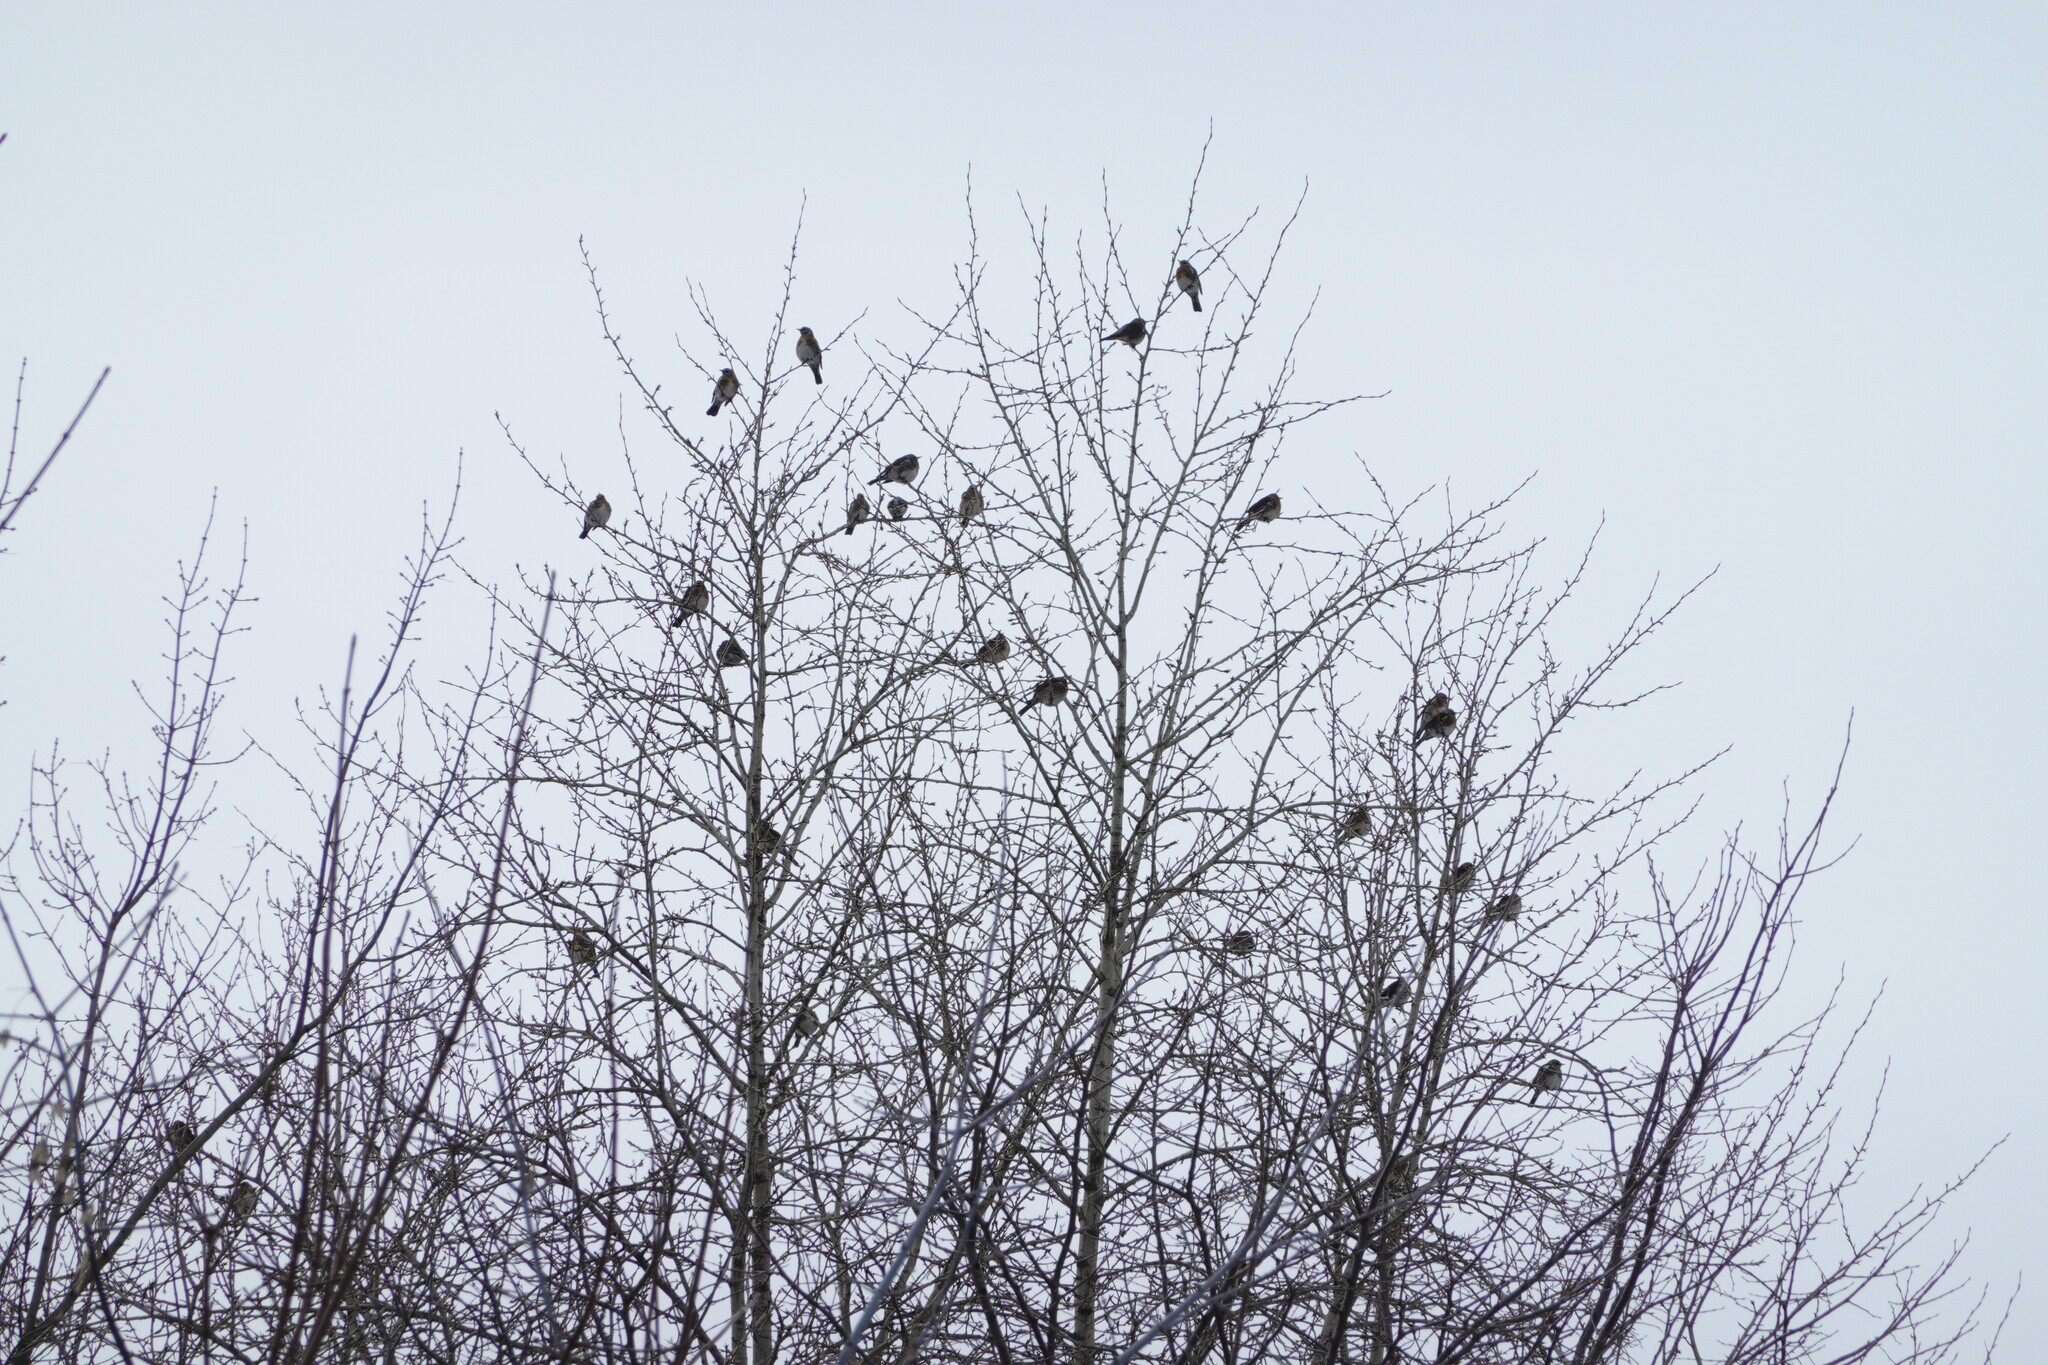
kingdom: Animalia
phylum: Chordata
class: Aves
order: Passeriformes
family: Turdidae
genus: Turdus
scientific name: Turdus pilaris
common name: Fieldfare
